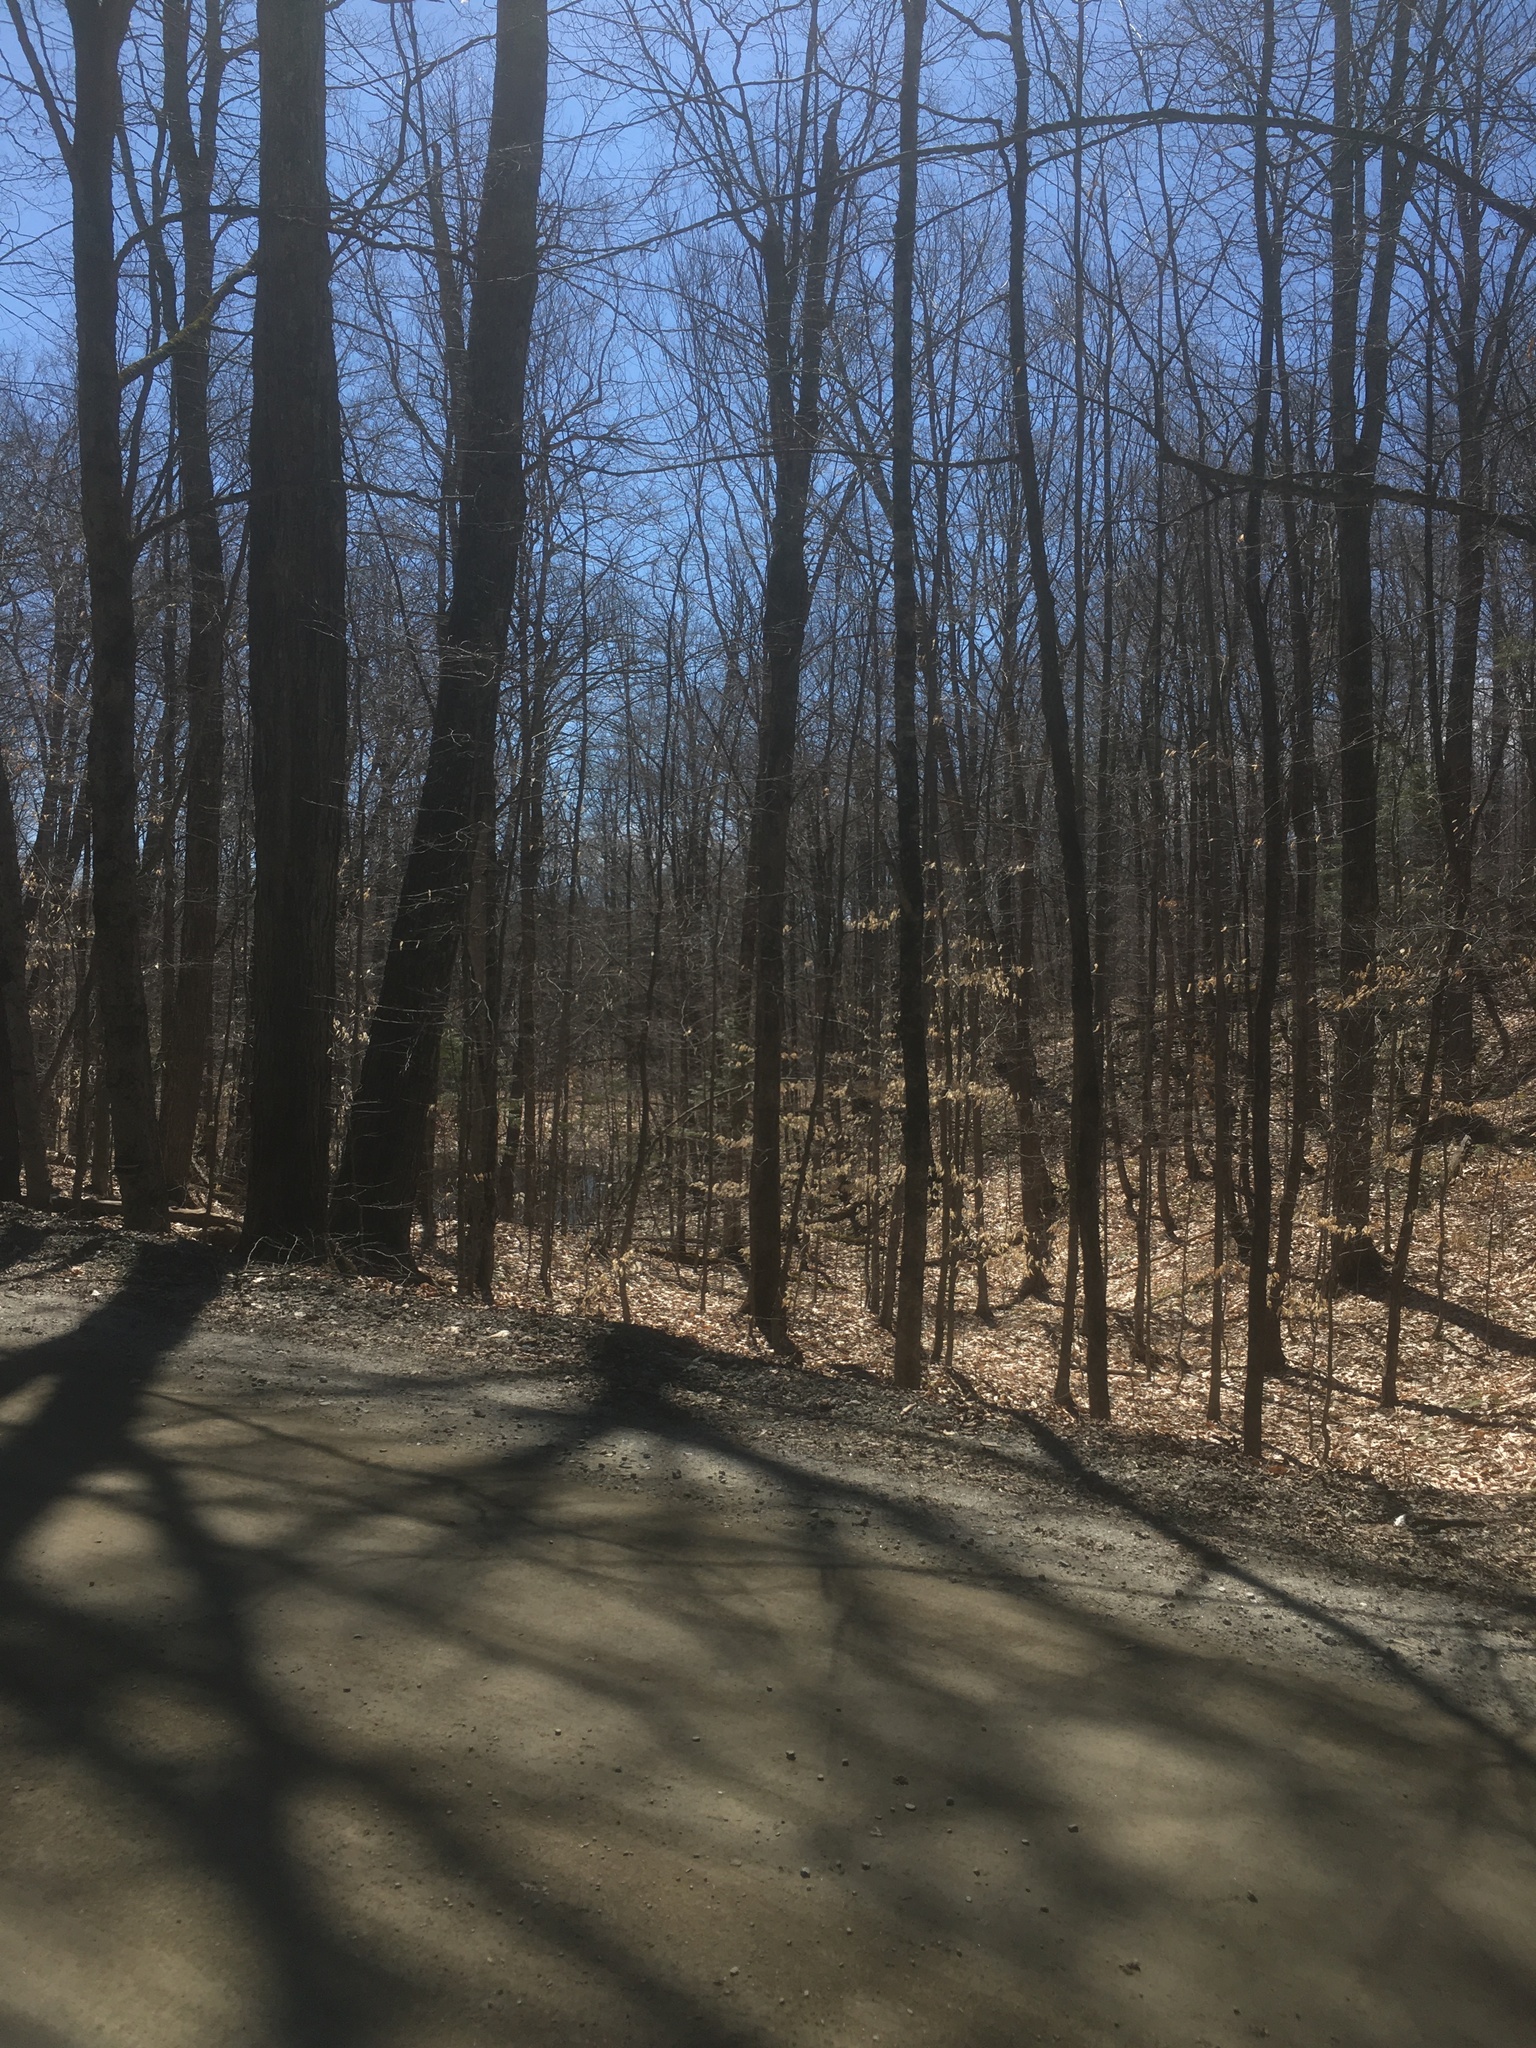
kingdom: Plantae
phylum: Tracheophyta
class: Magnoliopsida
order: Fagales
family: Fagaceae
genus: Fagus
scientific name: Fagus grandifolia
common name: American beech
